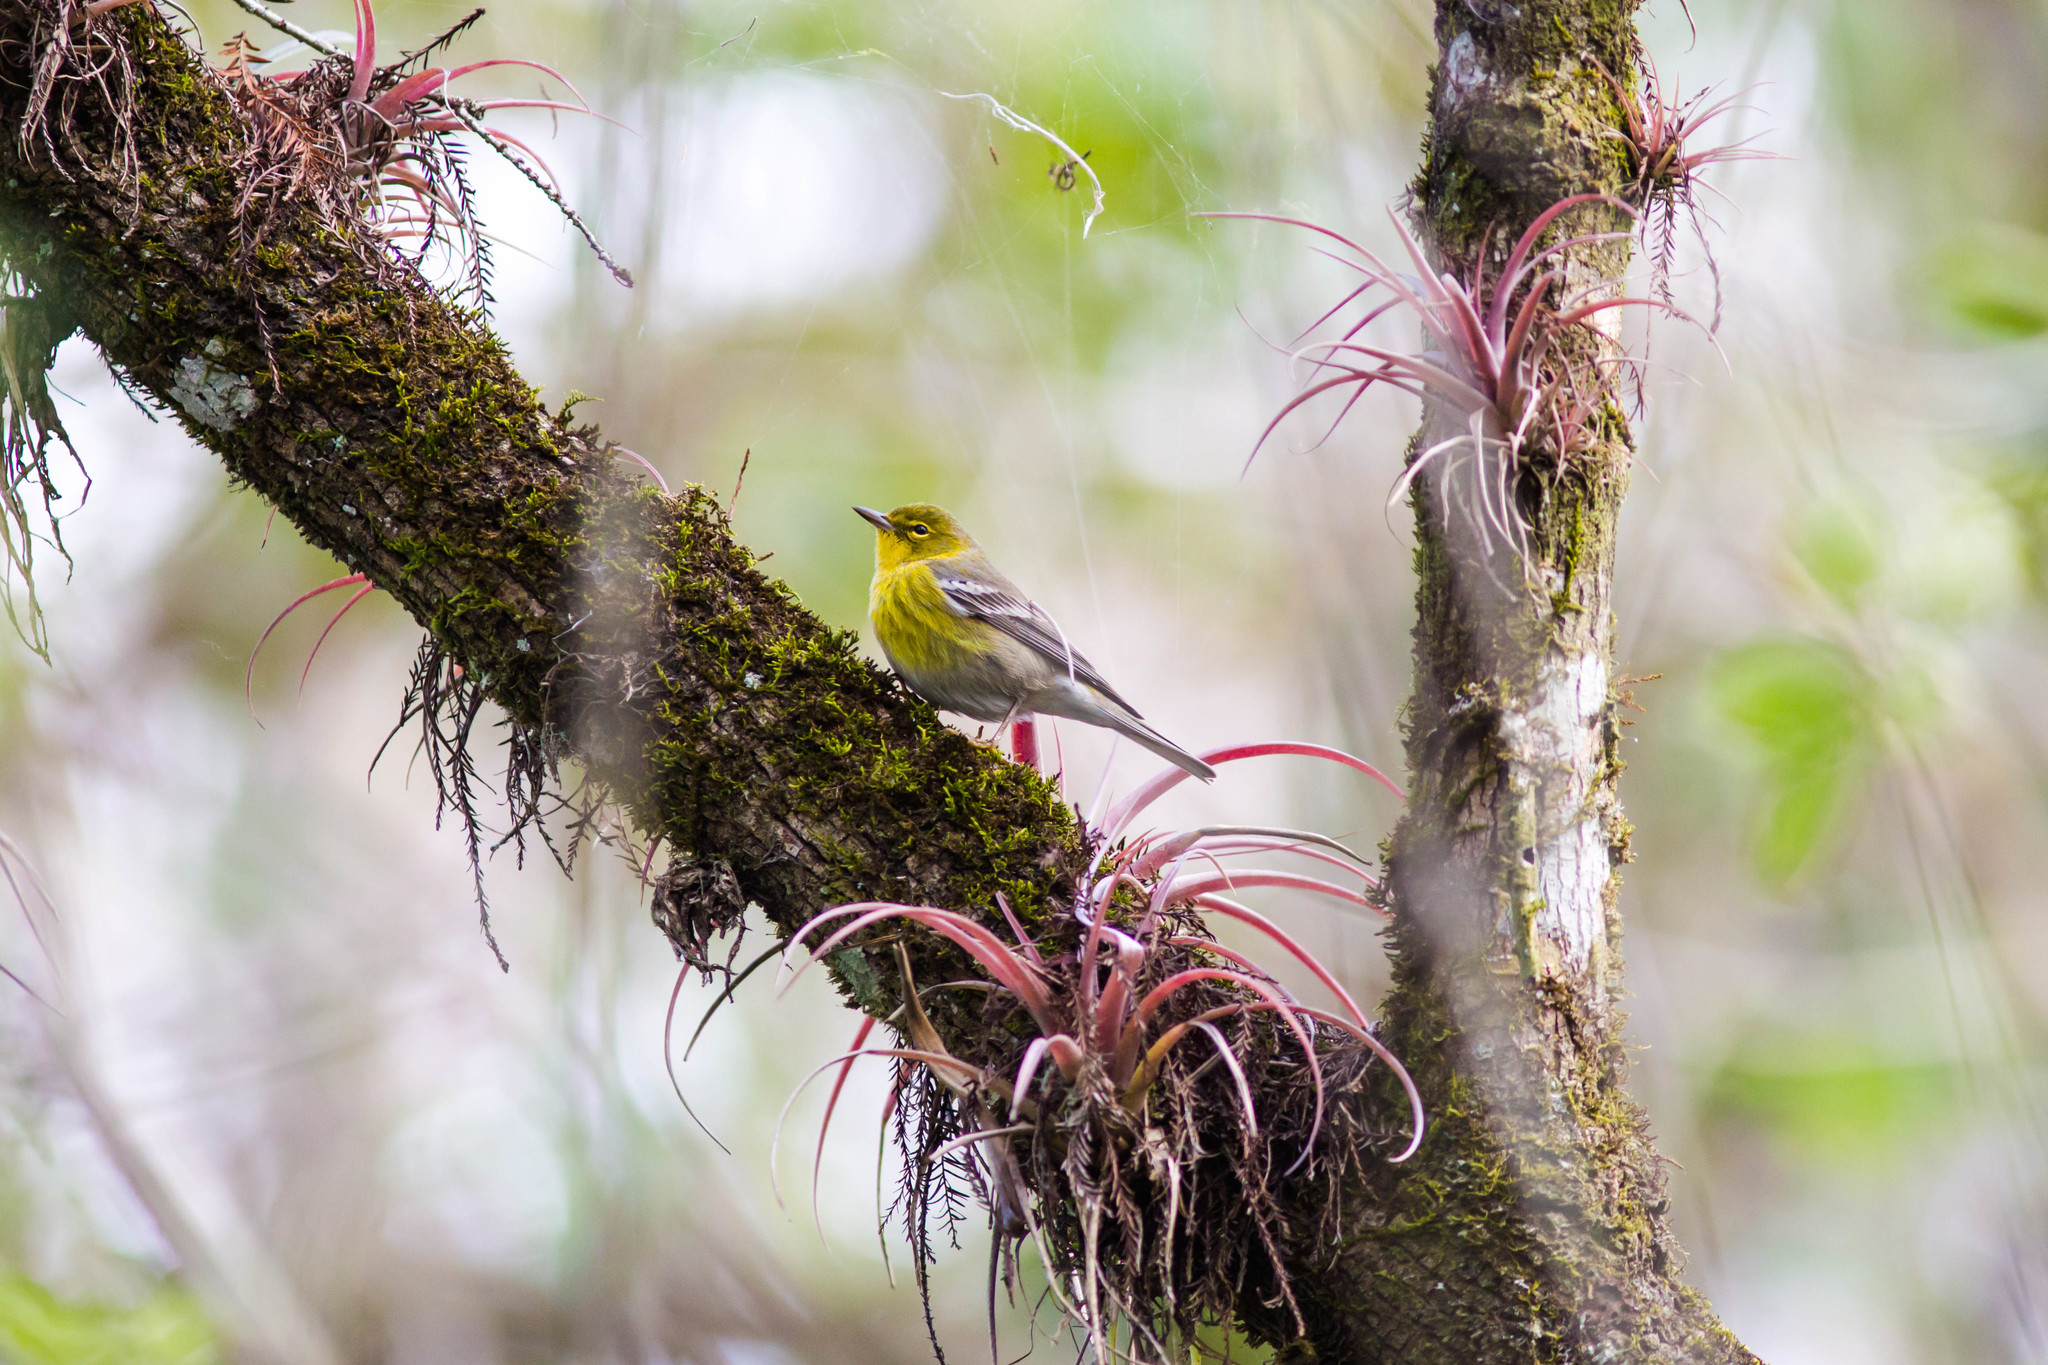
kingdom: Animalia
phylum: Chordata
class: Aves
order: Passeriformes
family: Parulidae
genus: Setophaga
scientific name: Setophaga pinus
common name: Pine warbler
